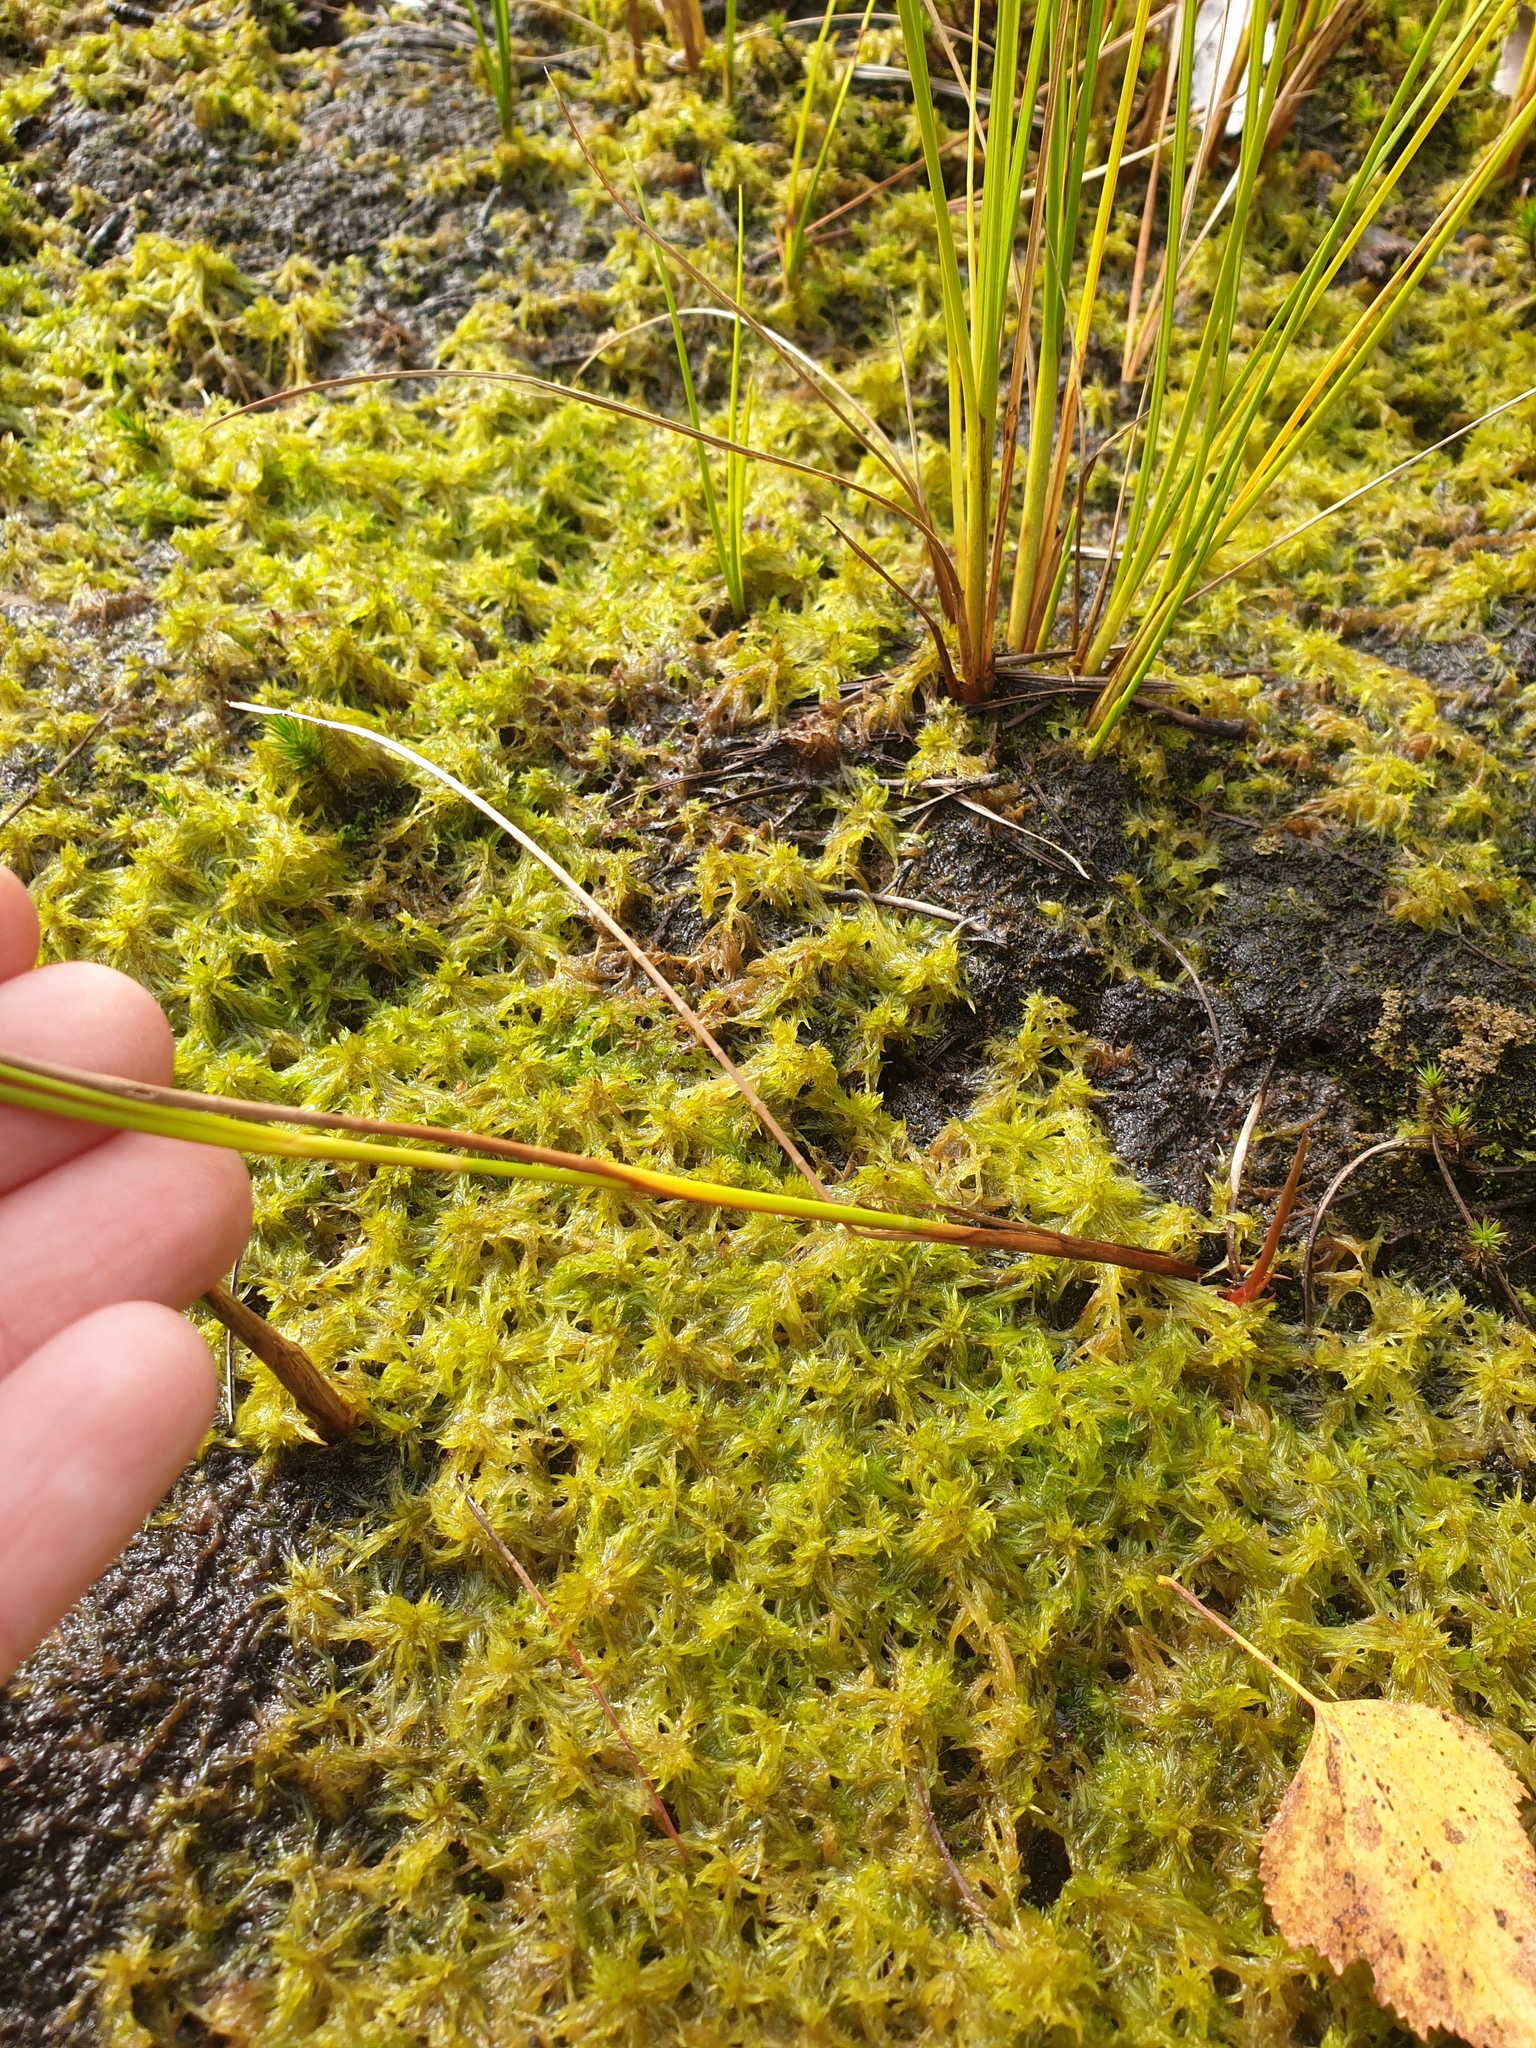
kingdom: Plantae
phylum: Tracheophyta
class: Liliopsida
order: Poales
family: Juncaceae
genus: Juncus
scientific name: Juncus tweedyi
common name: Narrow-panicled rush
